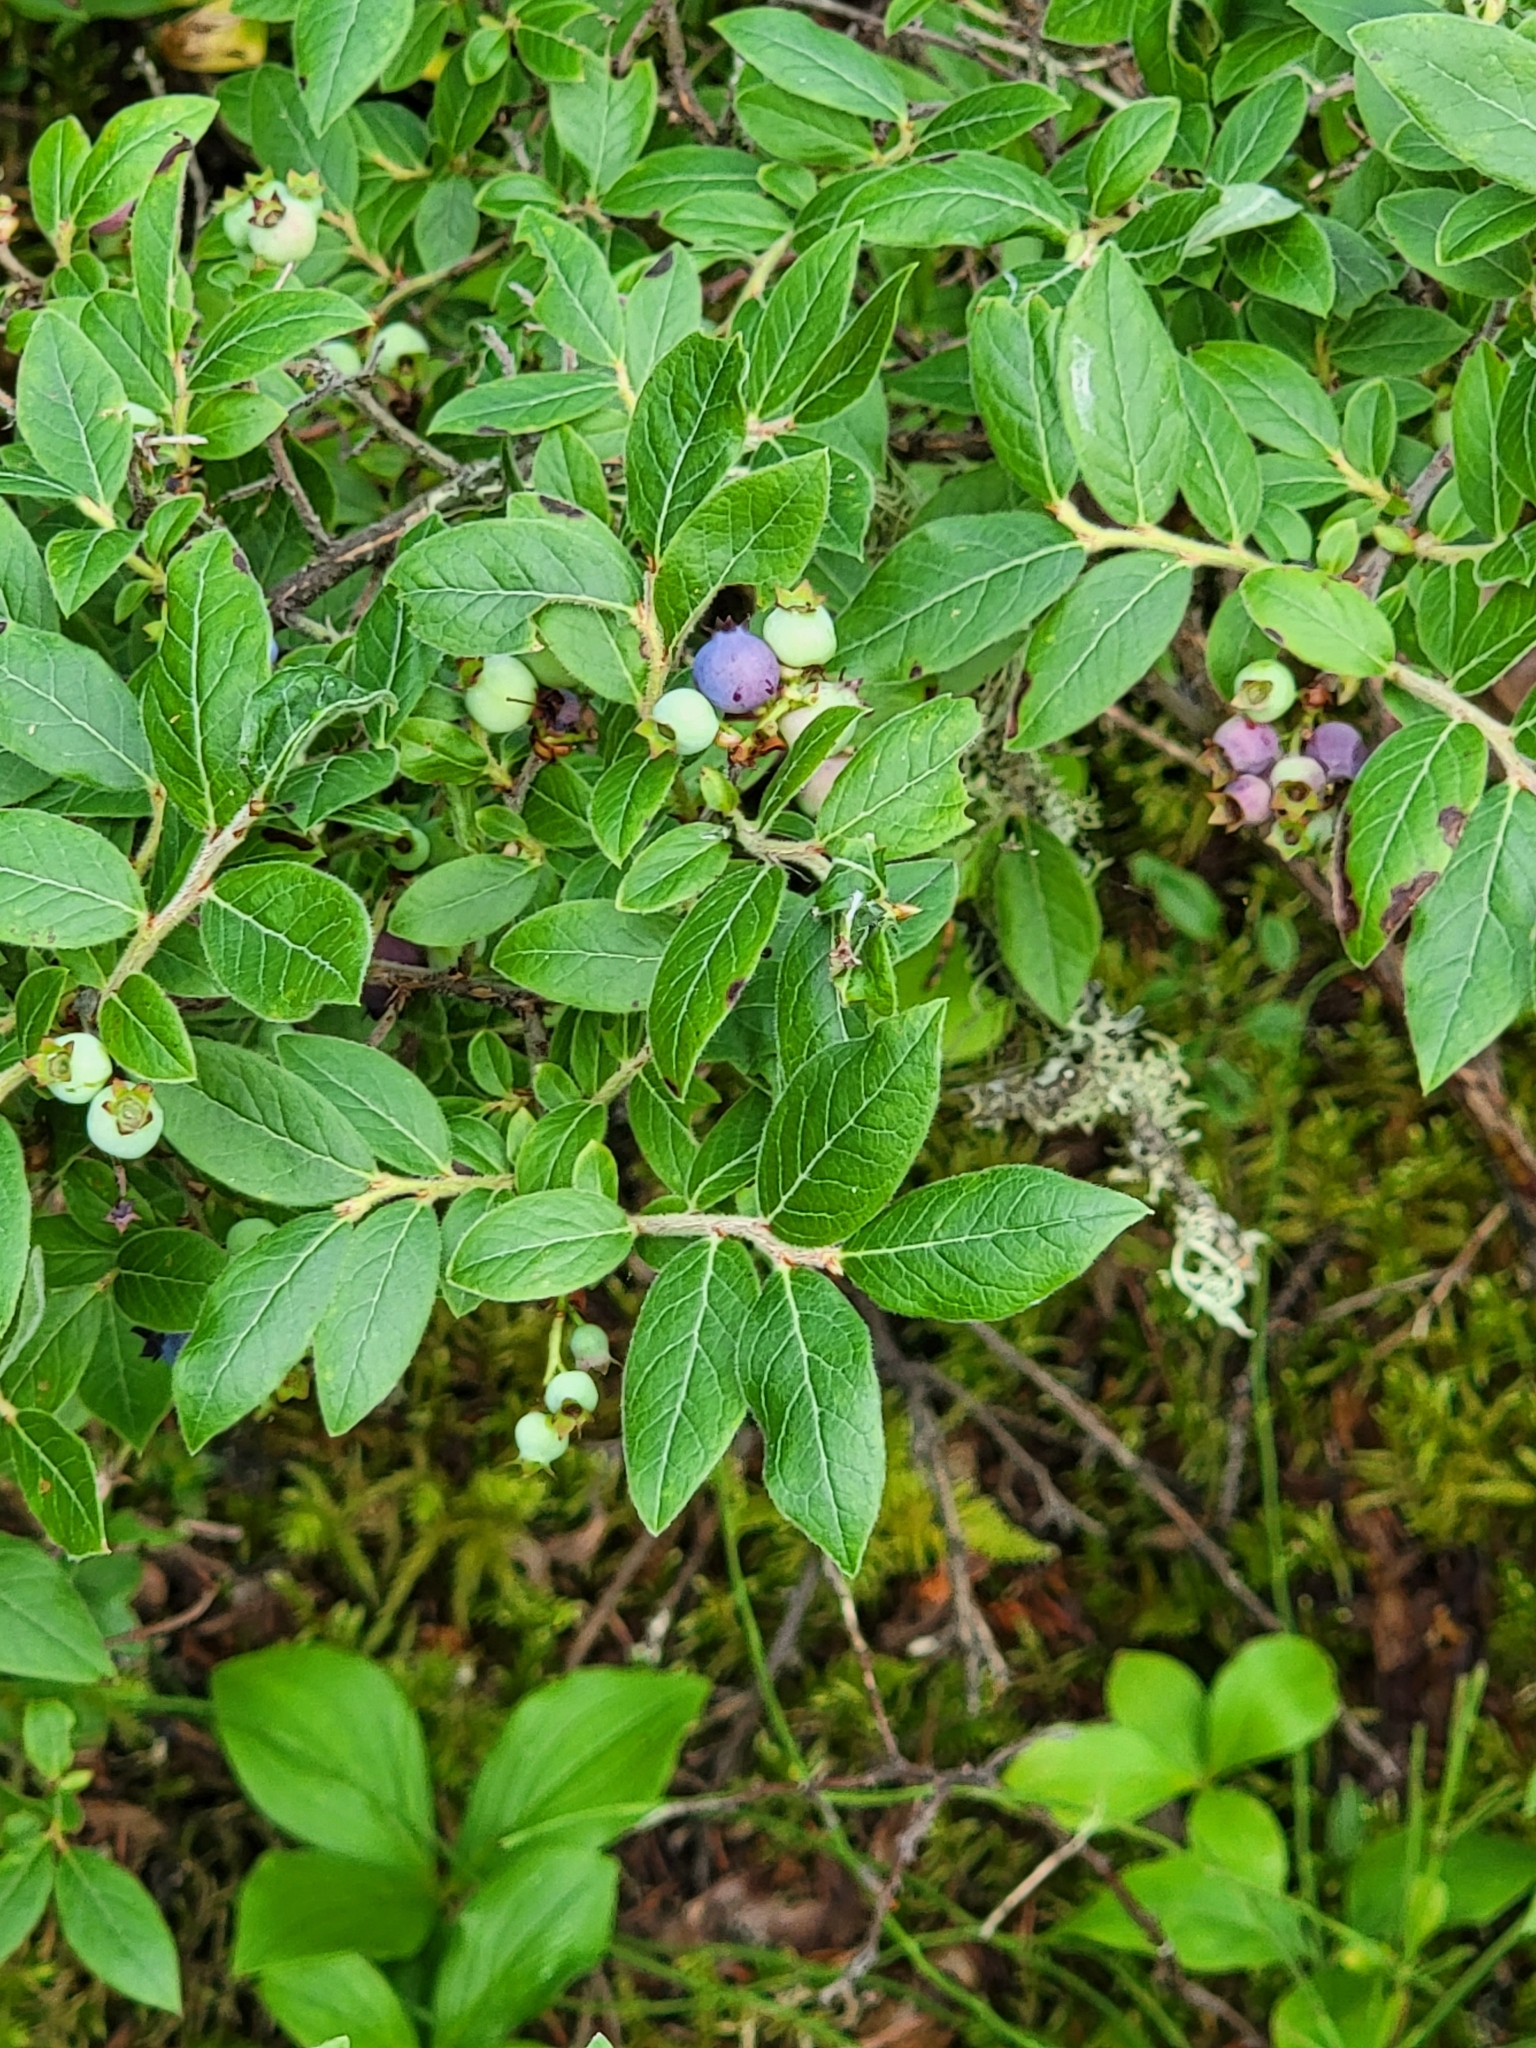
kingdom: Plantae
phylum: Tracheophyta
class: Magnoliopsida
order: Ericales
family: Ericaceae
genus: Vaccinium
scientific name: Vaccinium myrtilloides
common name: Canada blueberry
